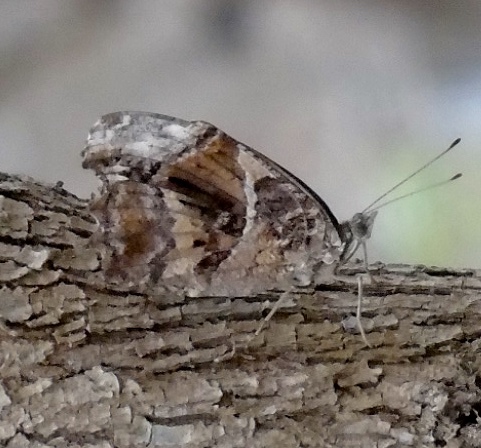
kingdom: Animalia
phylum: Arthropoda
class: Insecta
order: Lepidoptera
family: Nymphalidae
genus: Myscelia
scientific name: Myscelia cyananthe
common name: Blackened bluewing
